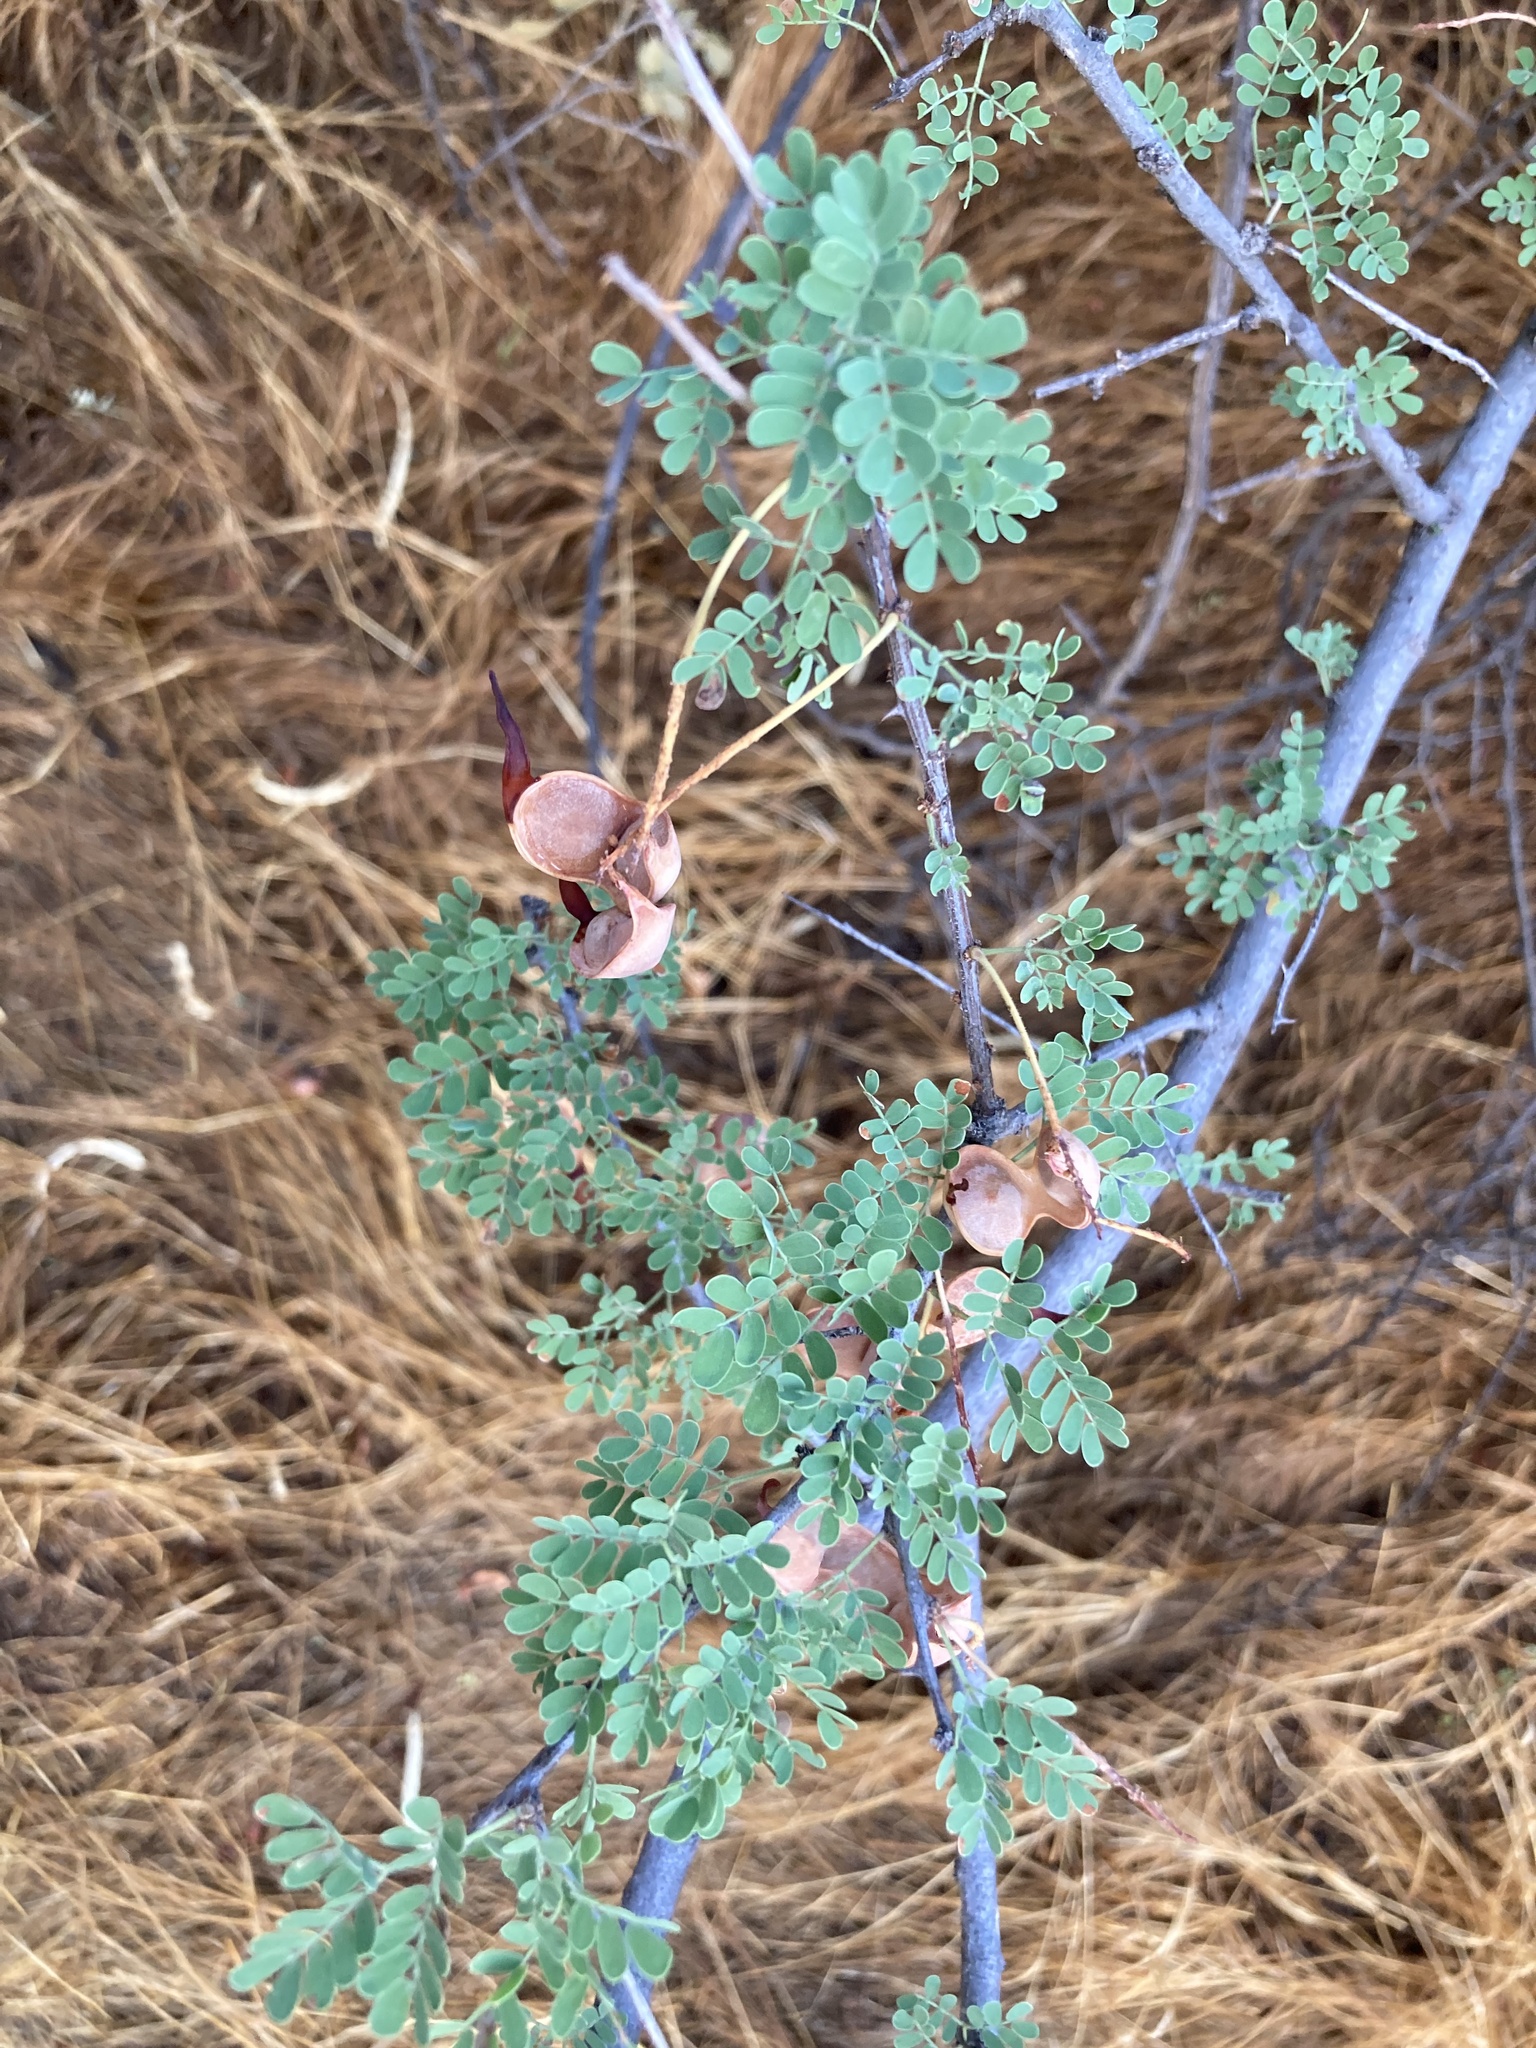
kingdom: Plantae
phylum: Tracheophyta
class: Magnoliopsida
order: Fabales
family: Fabaceae
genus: Senegalia
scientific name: Senegalia greggii
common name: Texas-mimosa
